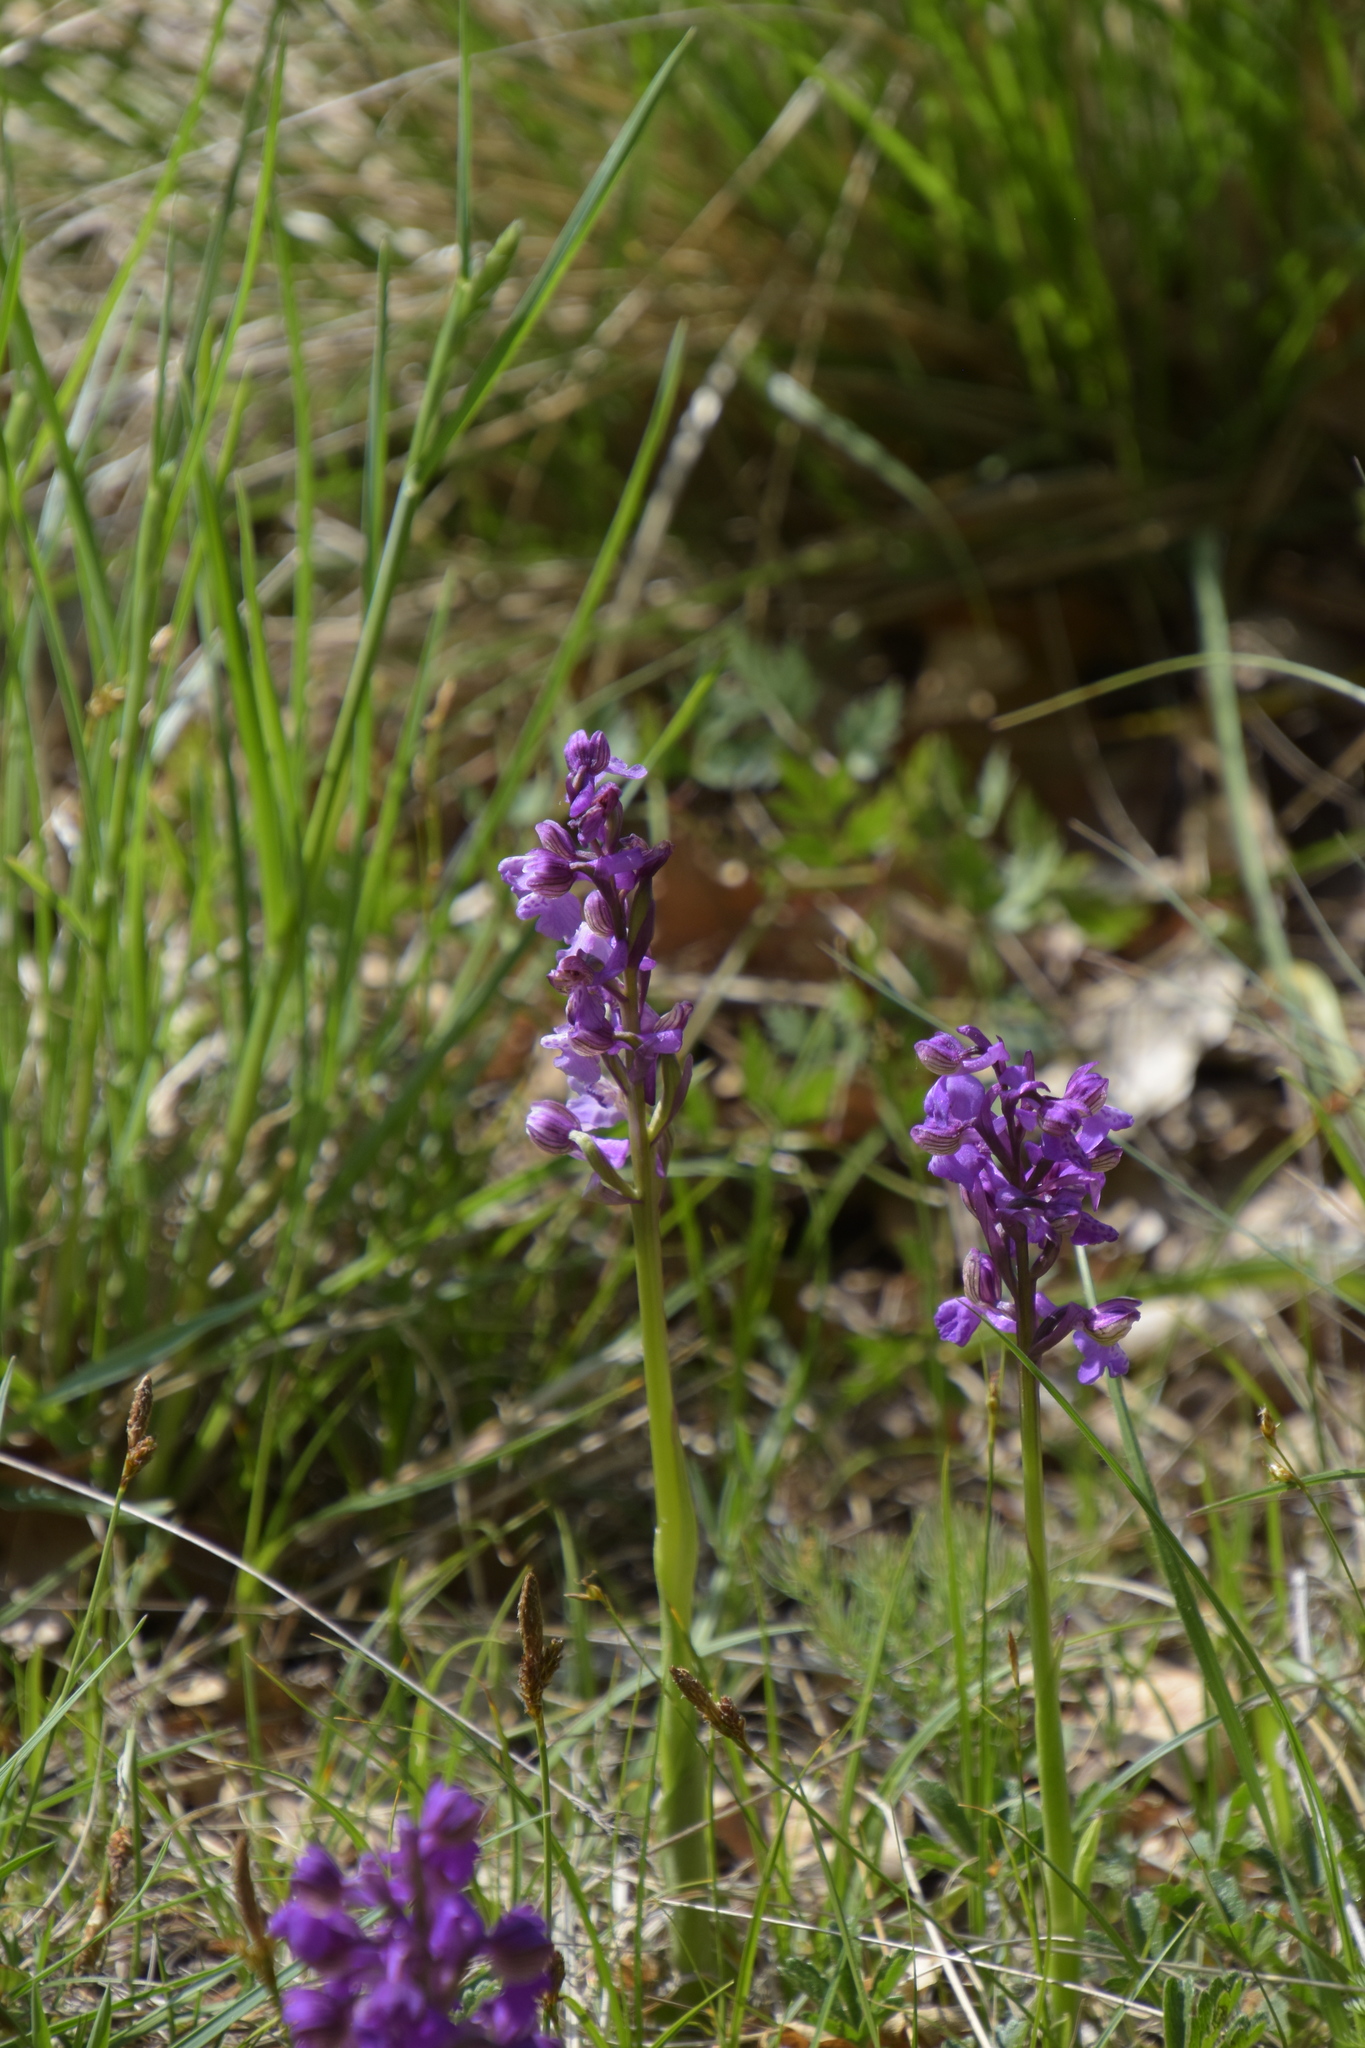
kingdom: Plantae
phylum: Tracheophyta
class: Liliopsida
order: Asparagales
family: Orchidaceae
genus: Anacamptis
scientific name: Anacamptis morio
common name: Green-winged orchid
